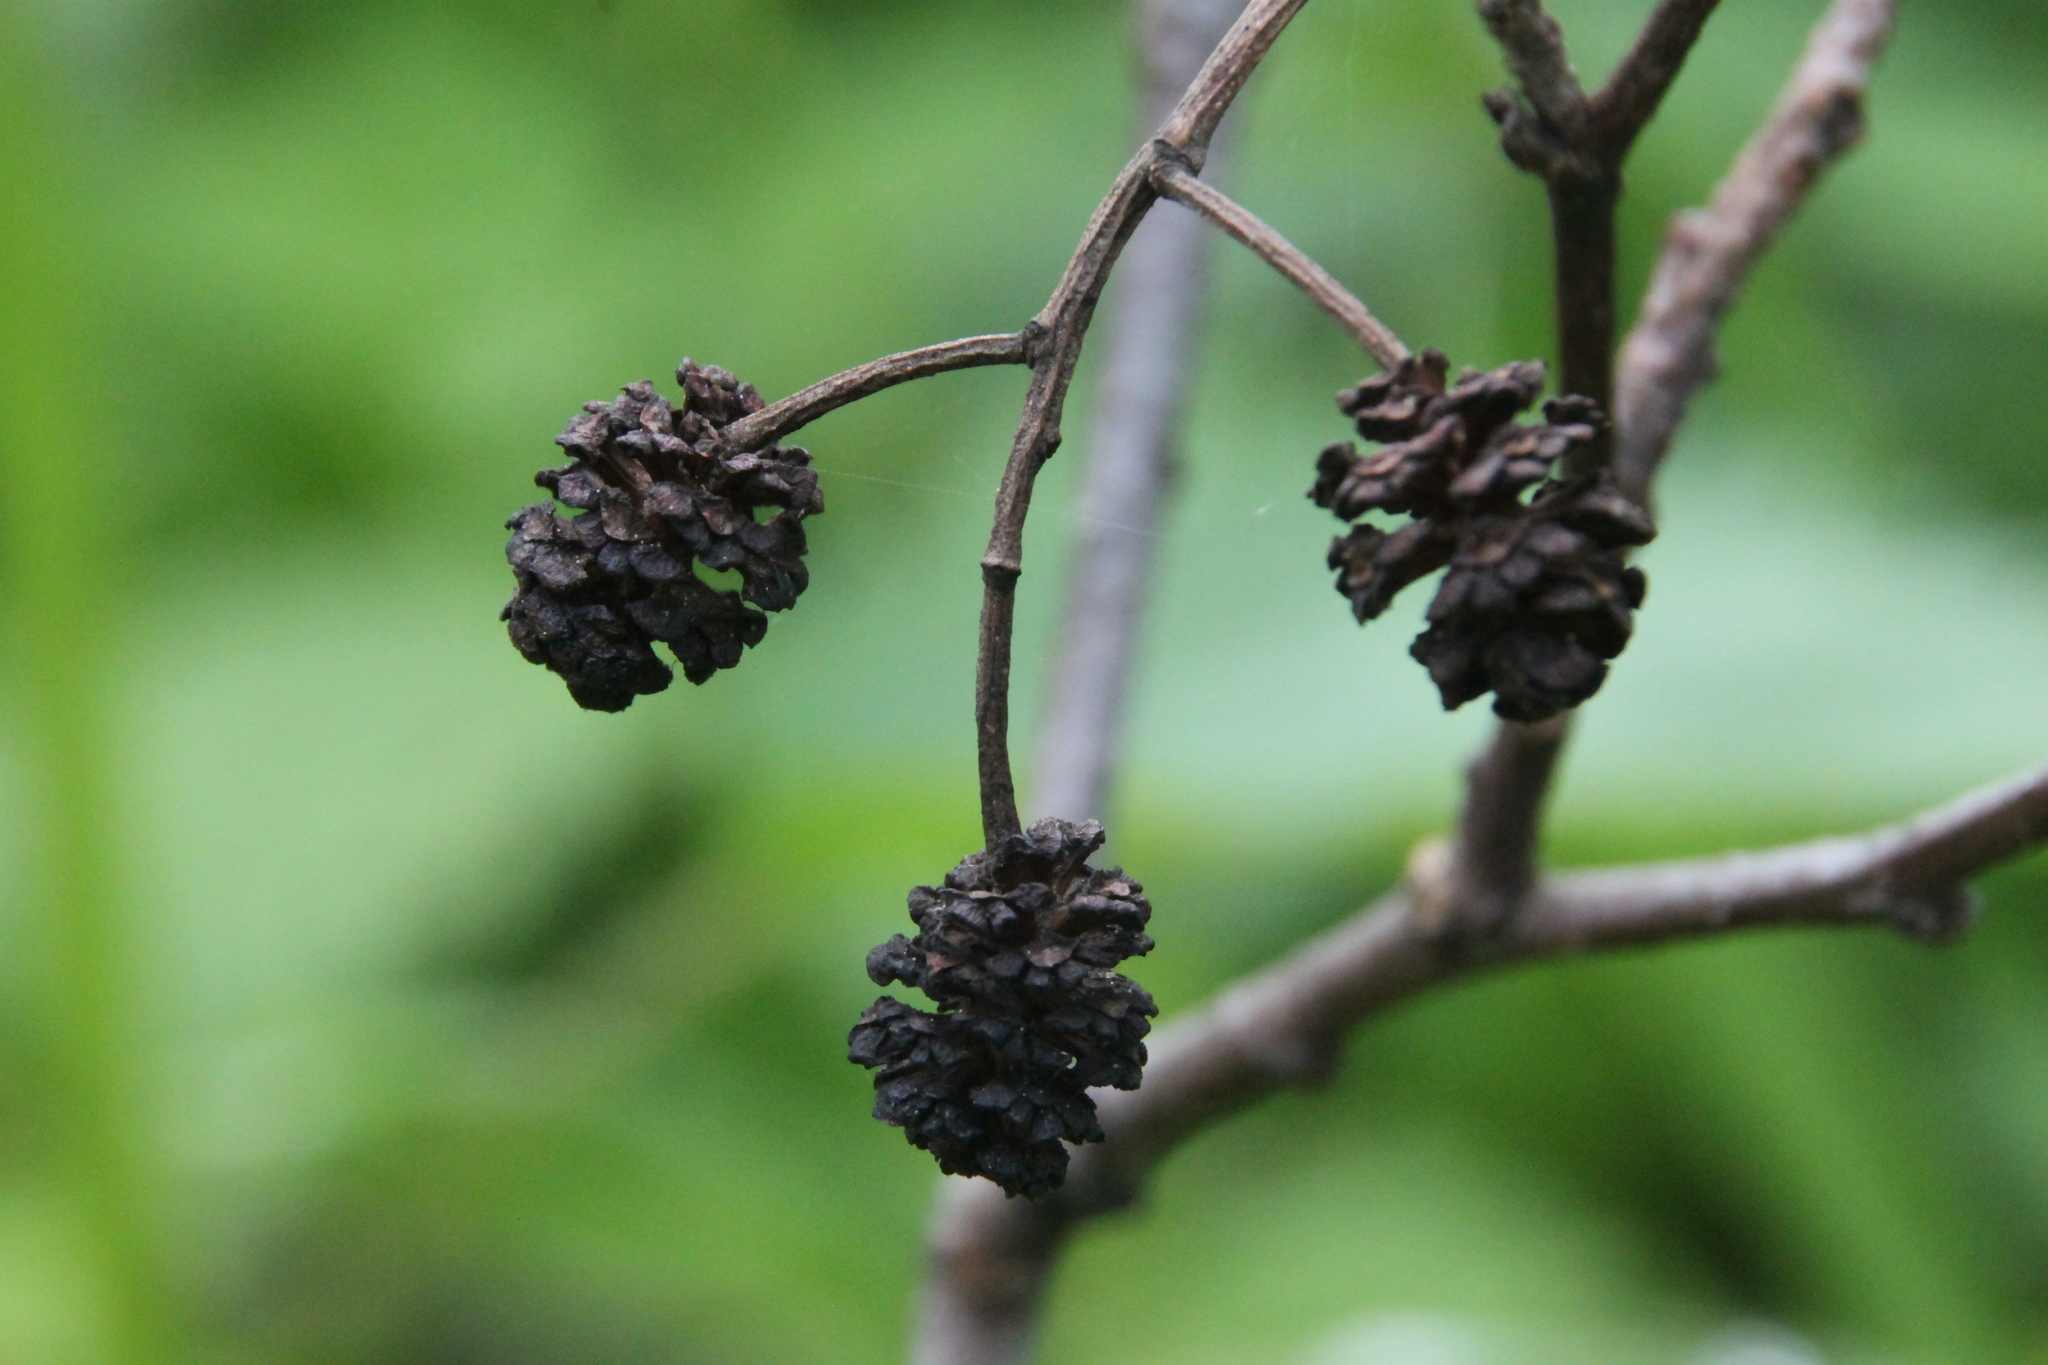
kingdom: Plantae
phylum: Tracheophyta
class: Magnoliopsida
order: Fagales
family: Betulaceae
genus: Alnus
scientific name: Alnus glutinosa
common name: Black alder
